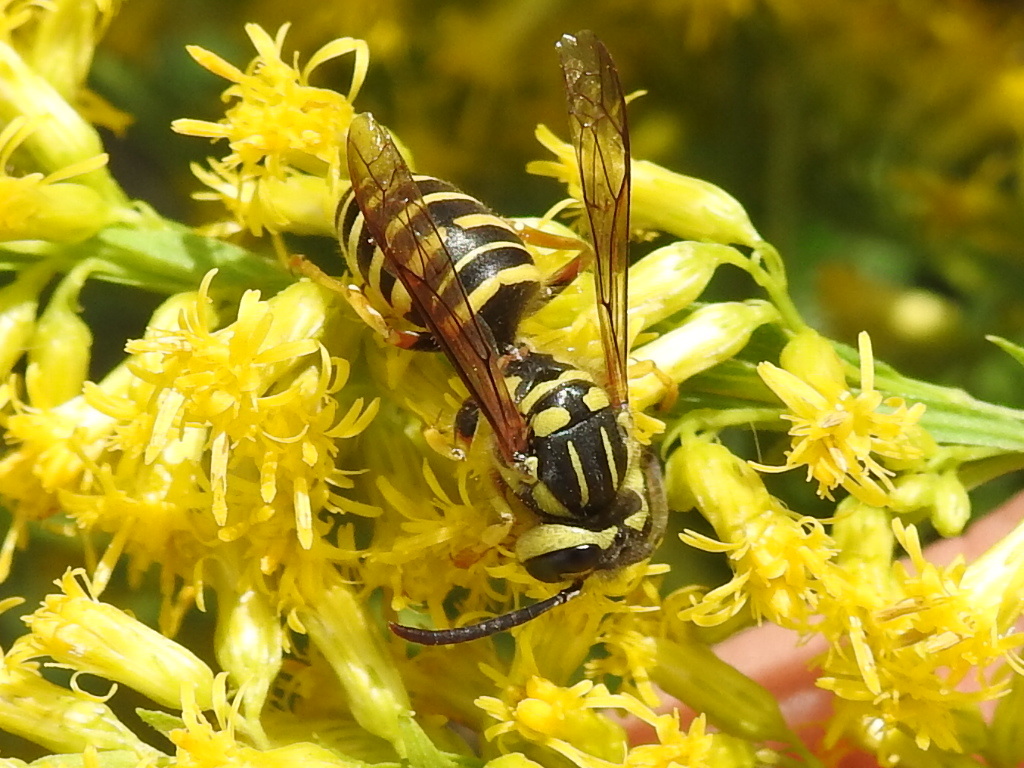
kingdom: Animalia
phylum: Arthropoda
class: Insecta
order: Hymenoptera
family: Vespidae
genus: Vespula
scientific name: Vespula squamosa
